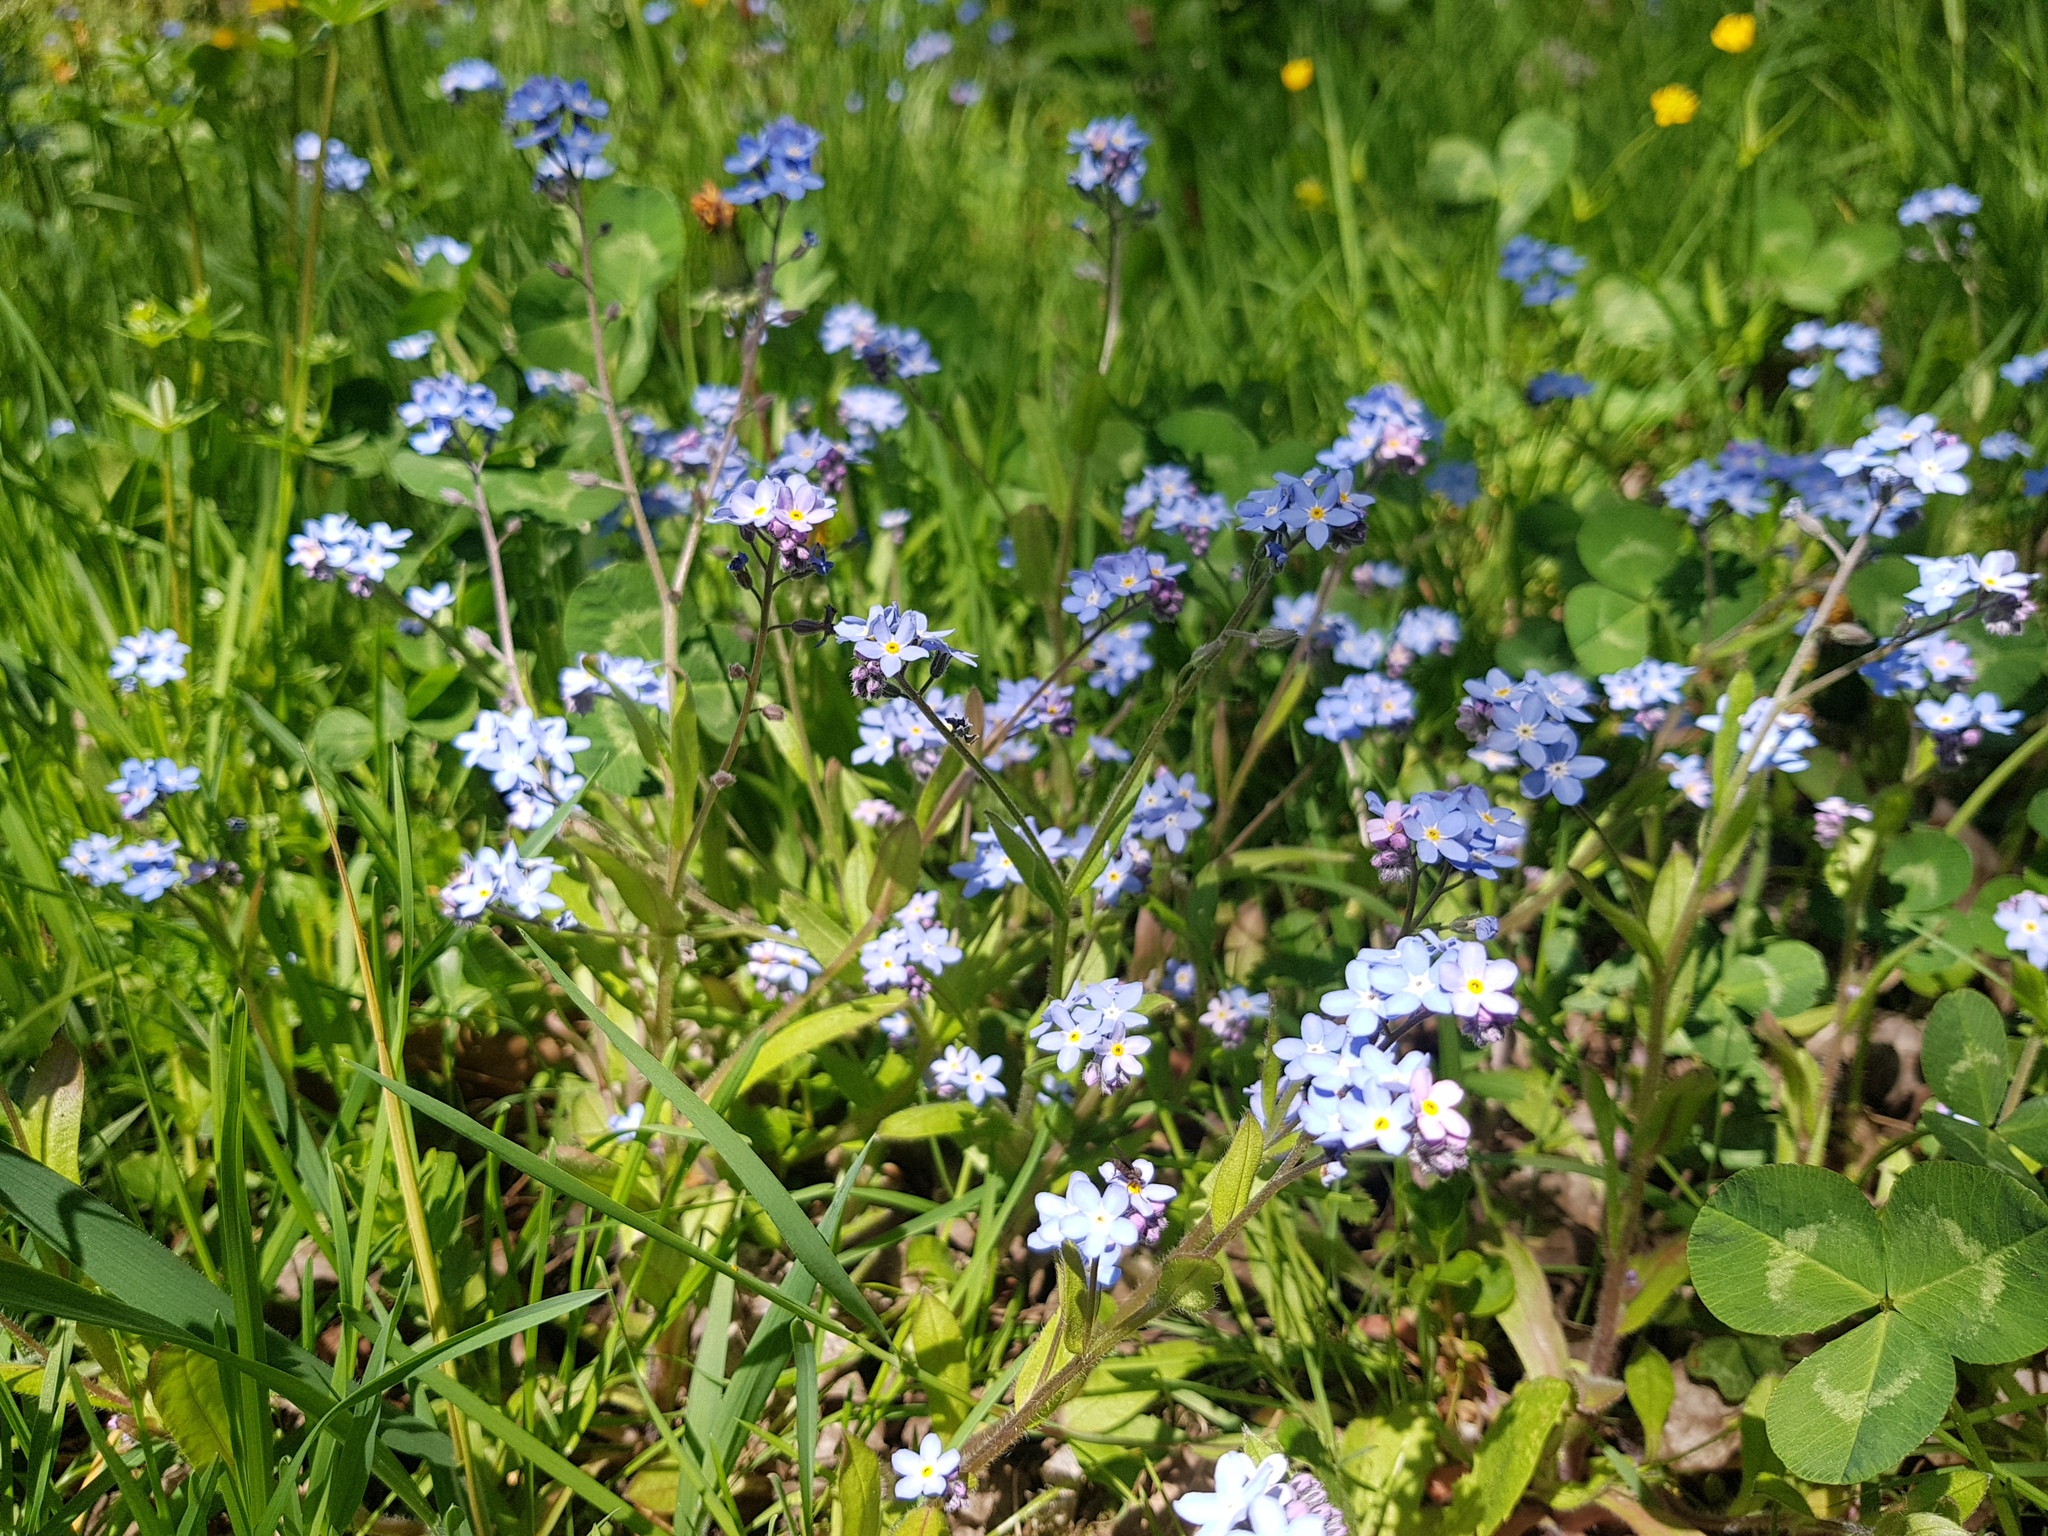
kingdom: Plantae
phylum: Tracheophyta
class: Magnoliopsida
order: Boraginales
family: Boraginaceae
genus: Myosotis
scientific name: Myosotis sylvatica
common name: Wood forget-me-not
